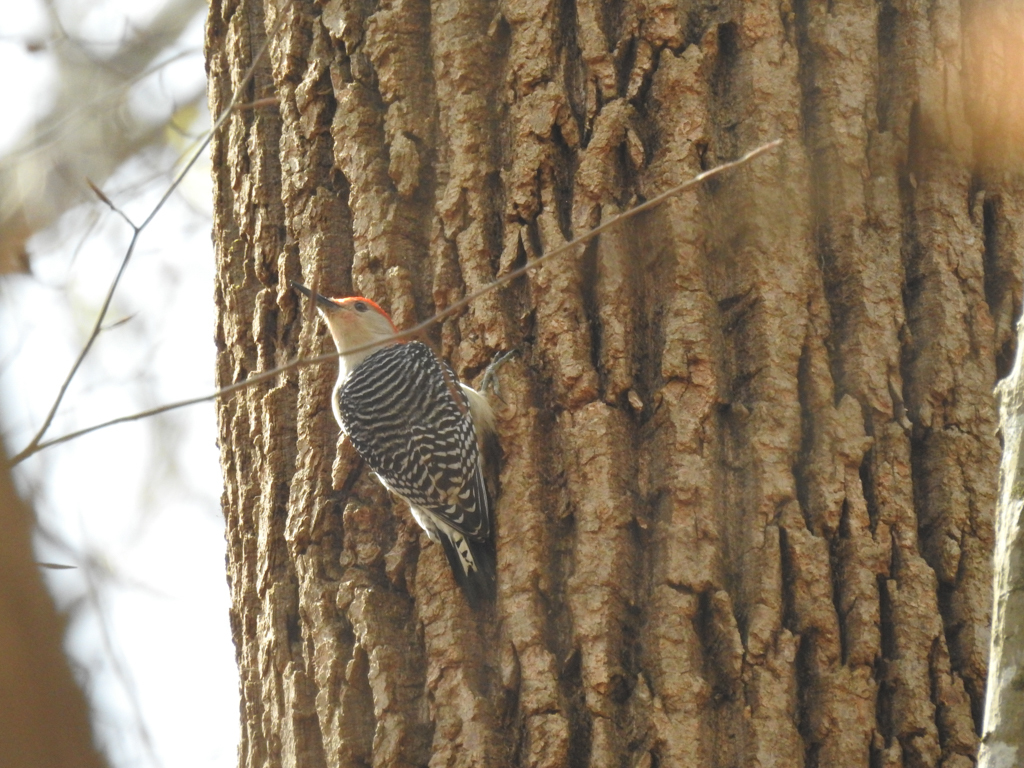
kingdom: Animalia
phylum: Chordata
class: Aves
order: Piciformes
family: Picidae
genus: Melanerpes
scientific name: Melanerpes carolinus
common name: Red-bellied woodpecker
